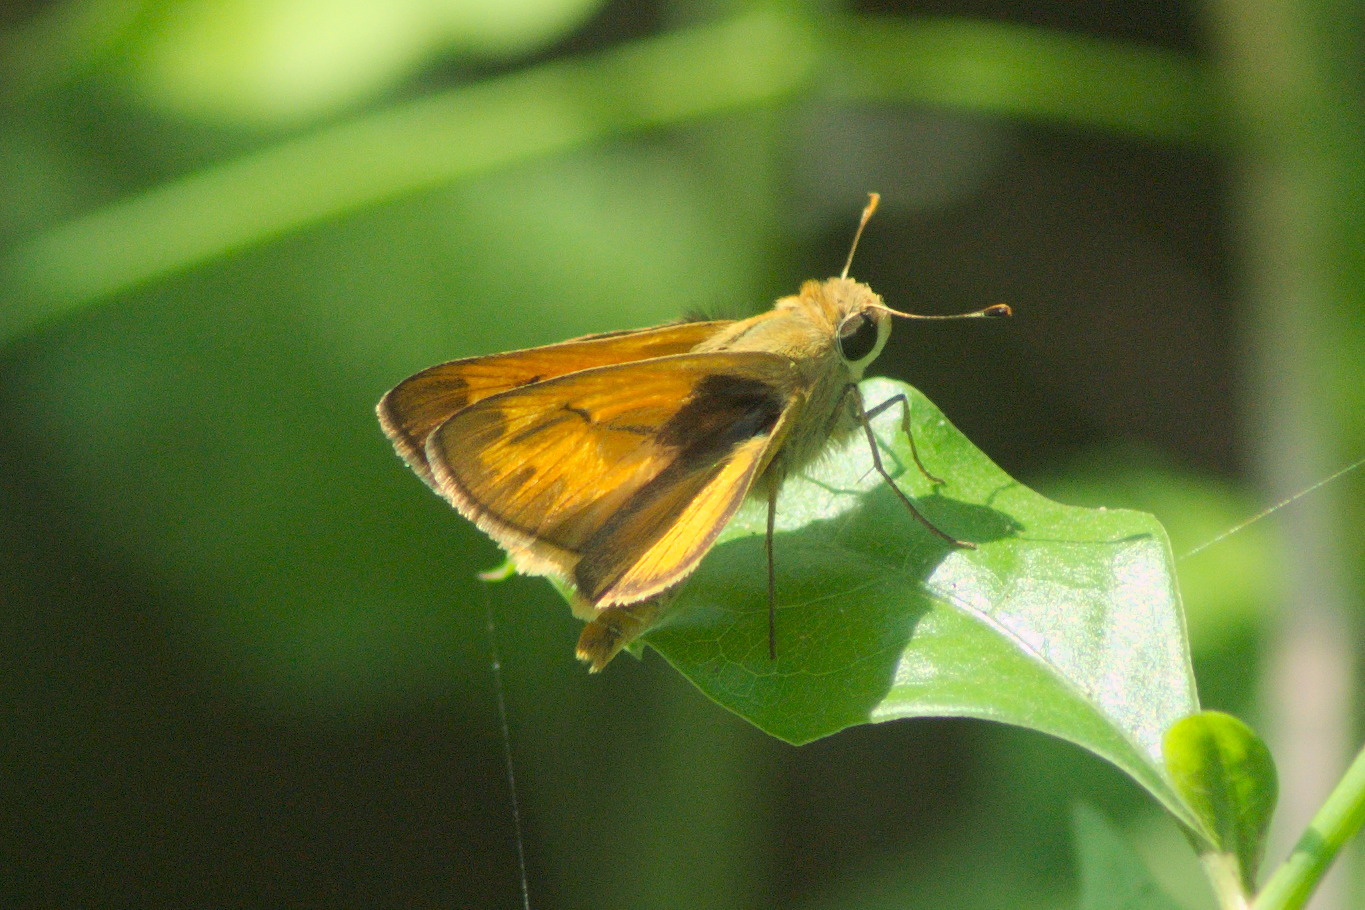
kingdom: Animalia
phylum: Arthropoda
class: Insecta
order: Lepidoptera
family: Hesperiidae
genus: Polites
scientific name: Polites vibex
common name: Whirlabout
